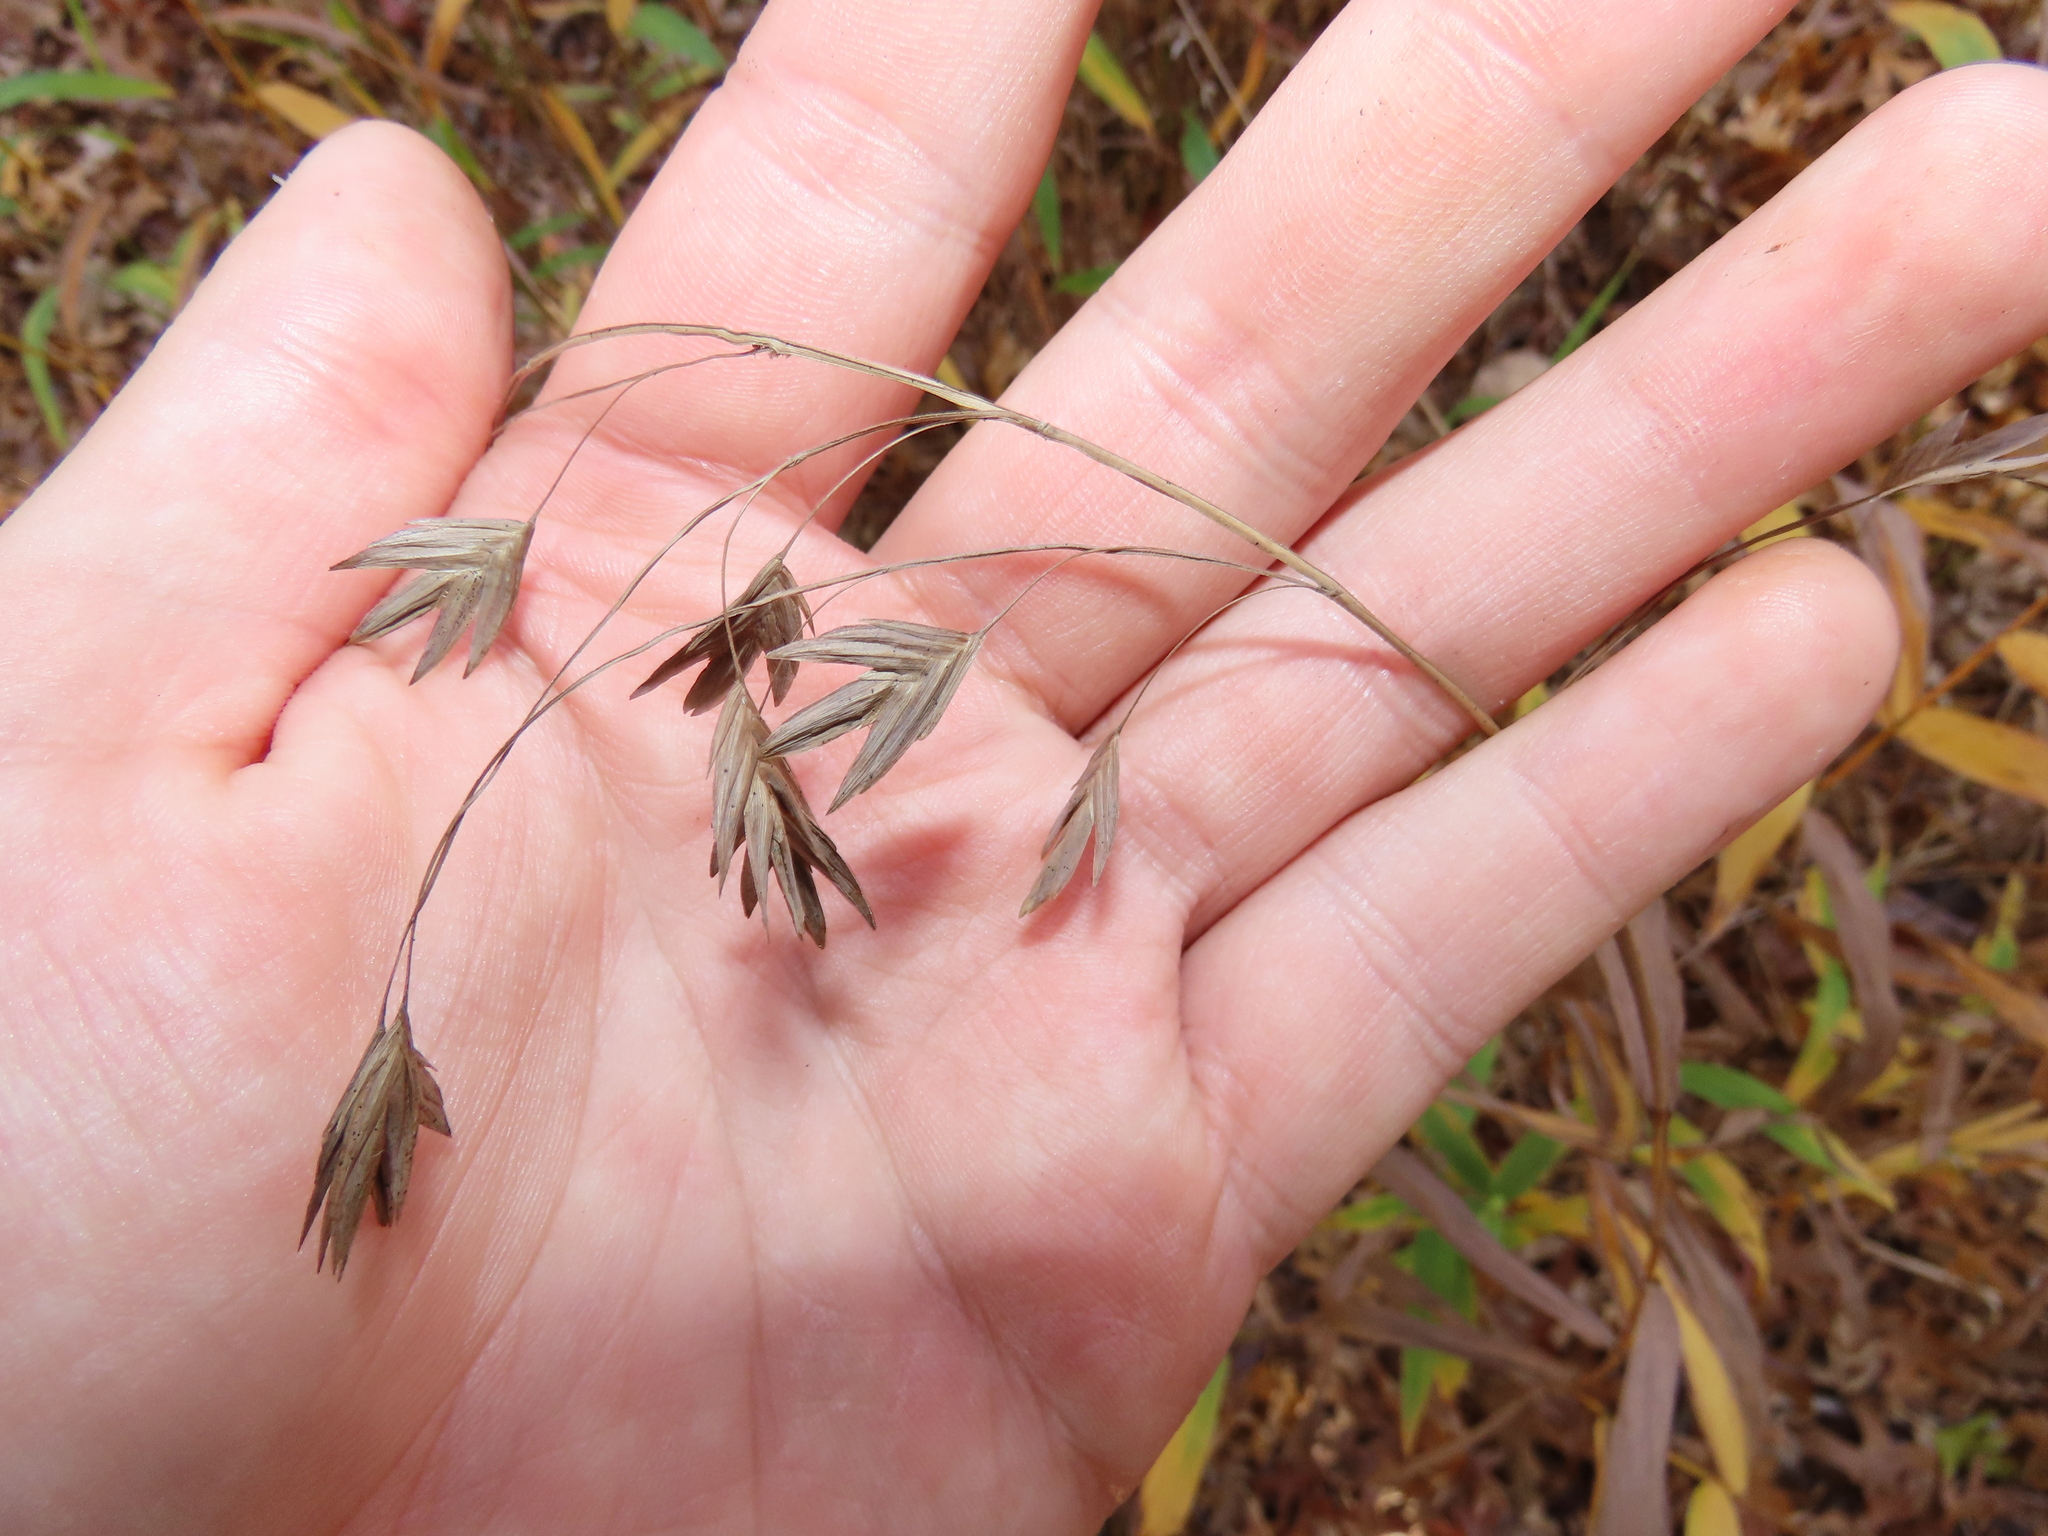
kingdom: Plantae
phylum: Tracheophyta
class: Liliopsida
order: Poales
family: Poaceae
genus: Chasmanthium
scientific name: Chasmanthium latifolium
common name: Broad-leaved chasmanthium
